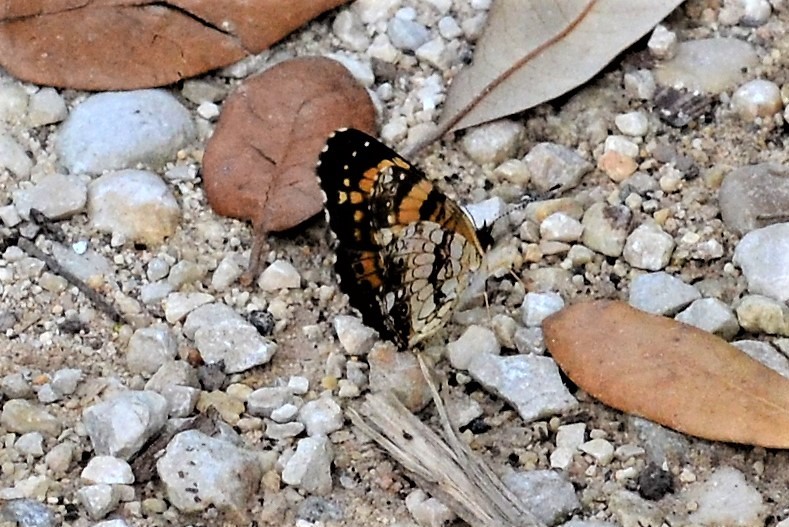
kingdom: Animalia
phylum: Arthropoda
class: Insecta
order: Lepidoptera
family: Nymphalidae
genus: Chlosyne
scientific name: Chlosyne nycteis
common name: Silvery checkerspot
